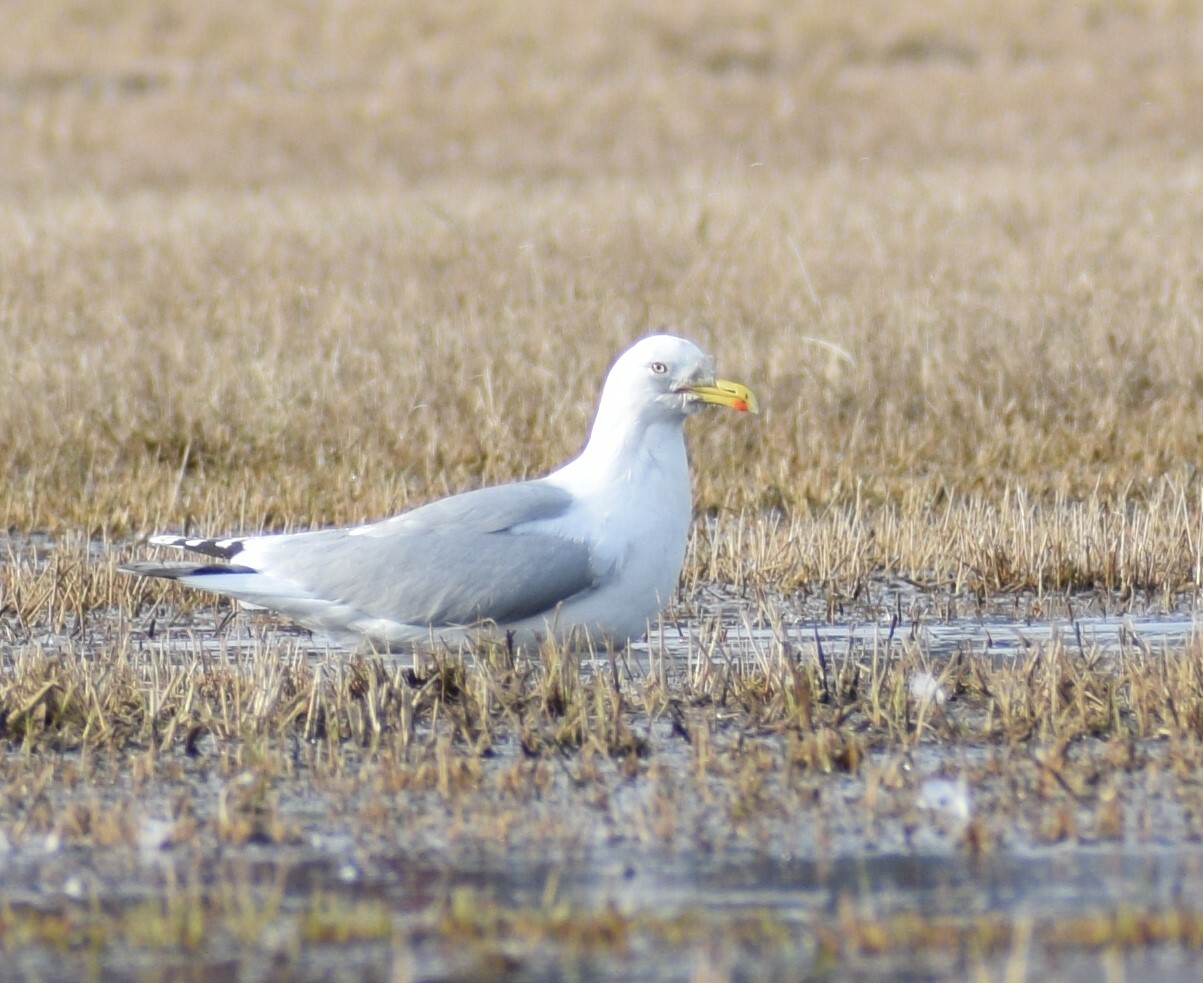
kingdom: Animalia
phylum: Chordata
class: Aves
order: Charadriiformes
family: Laridae
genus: Larus
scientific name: Larus argentatus
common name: Herring gull
